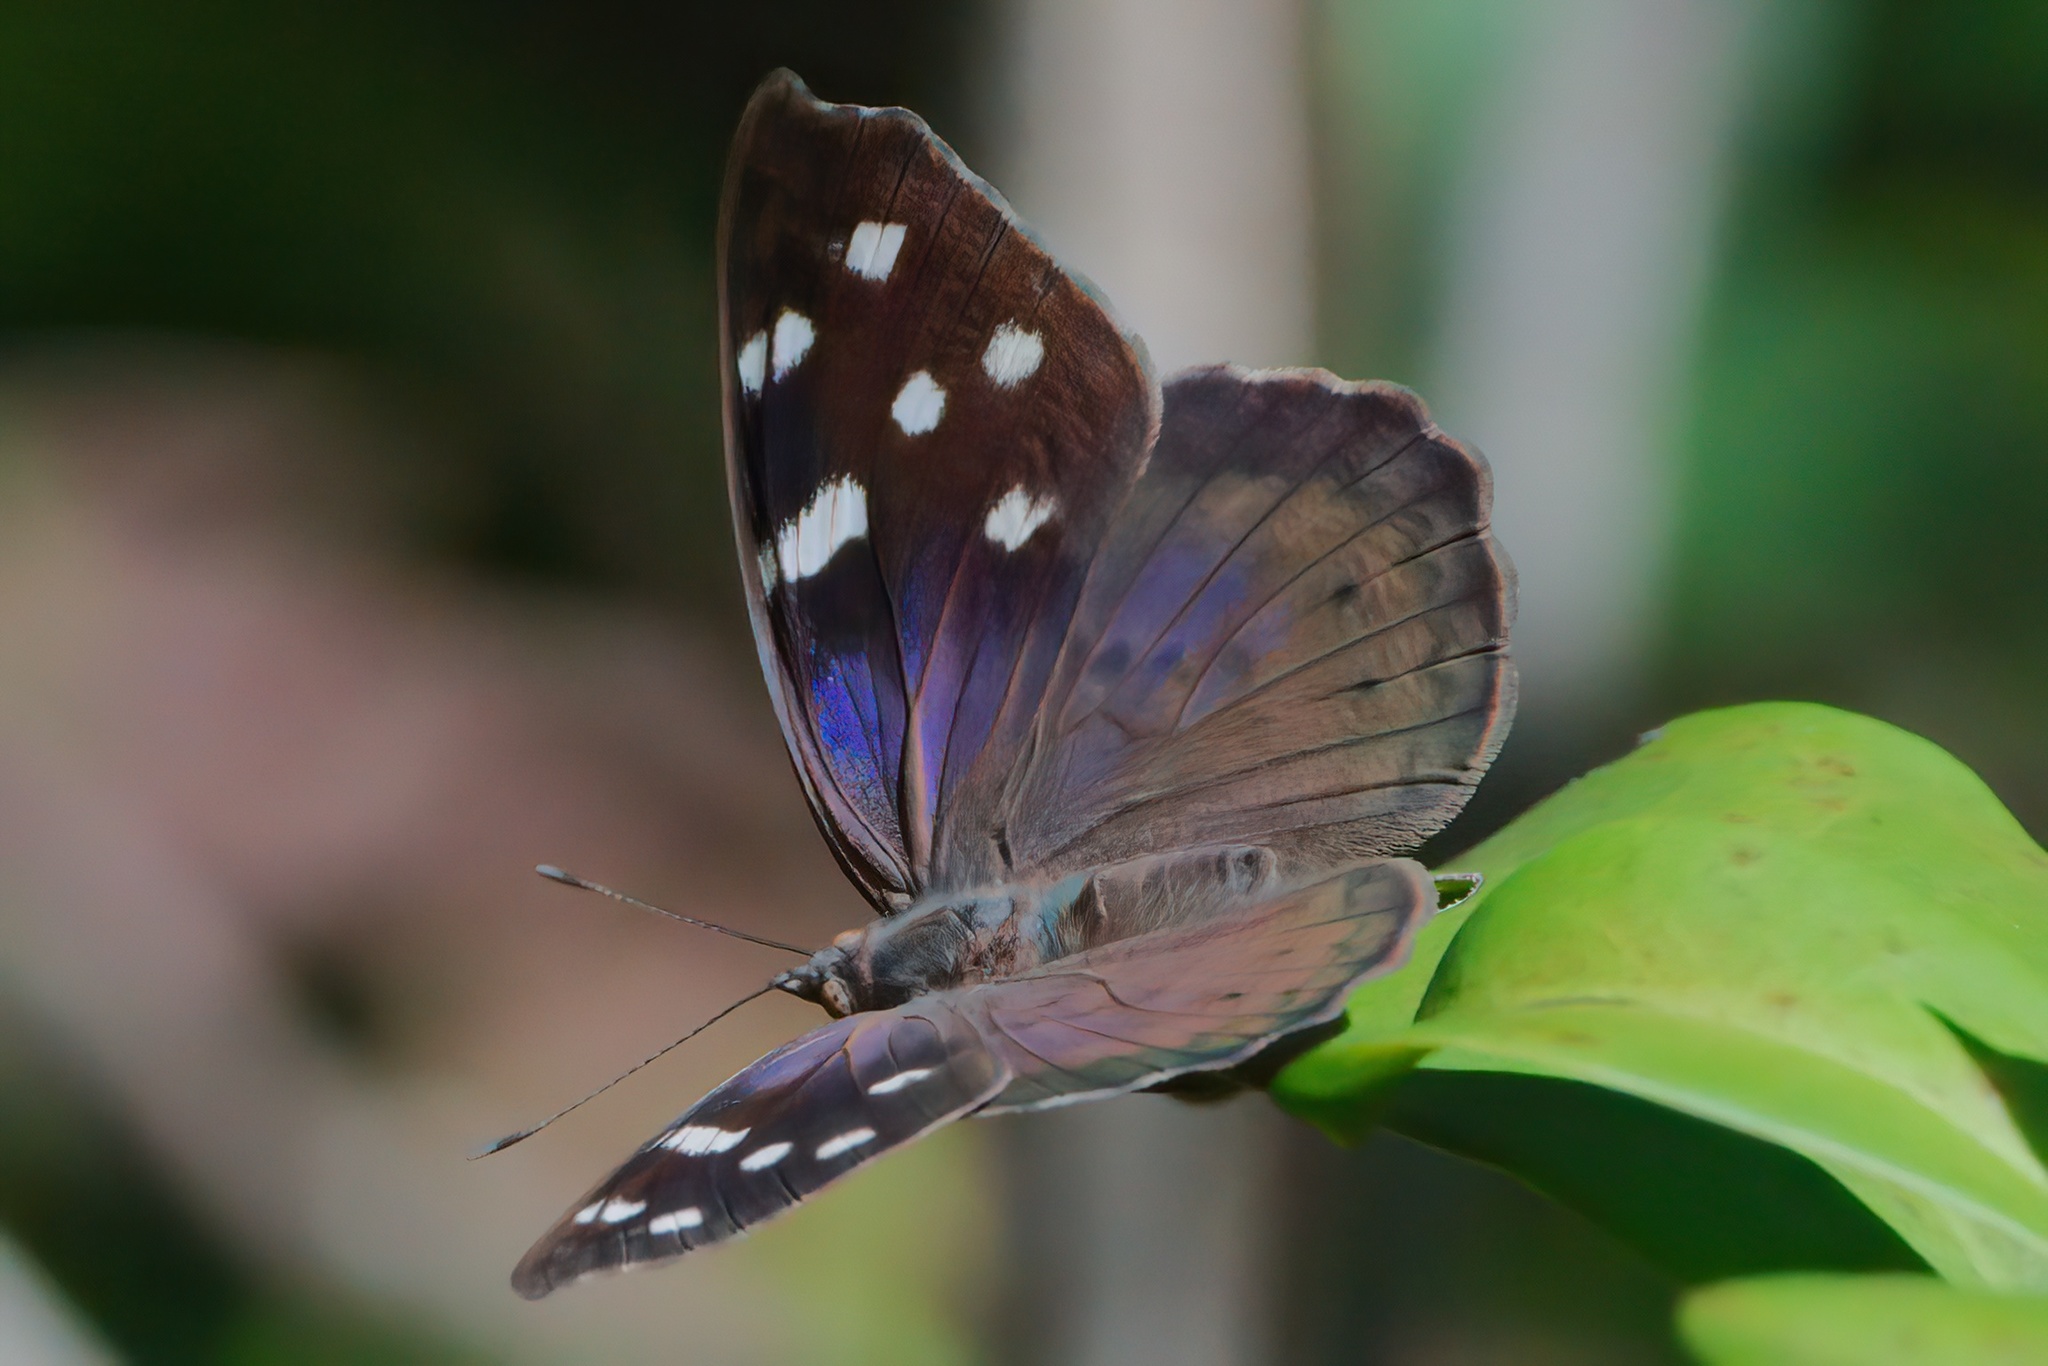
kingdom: Animalia
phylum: Arthropoda
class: Insecta
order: Lepidoptera
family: Nymphalidae
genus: Eunica
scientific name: Eunica tatila
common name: Florida purplewing
